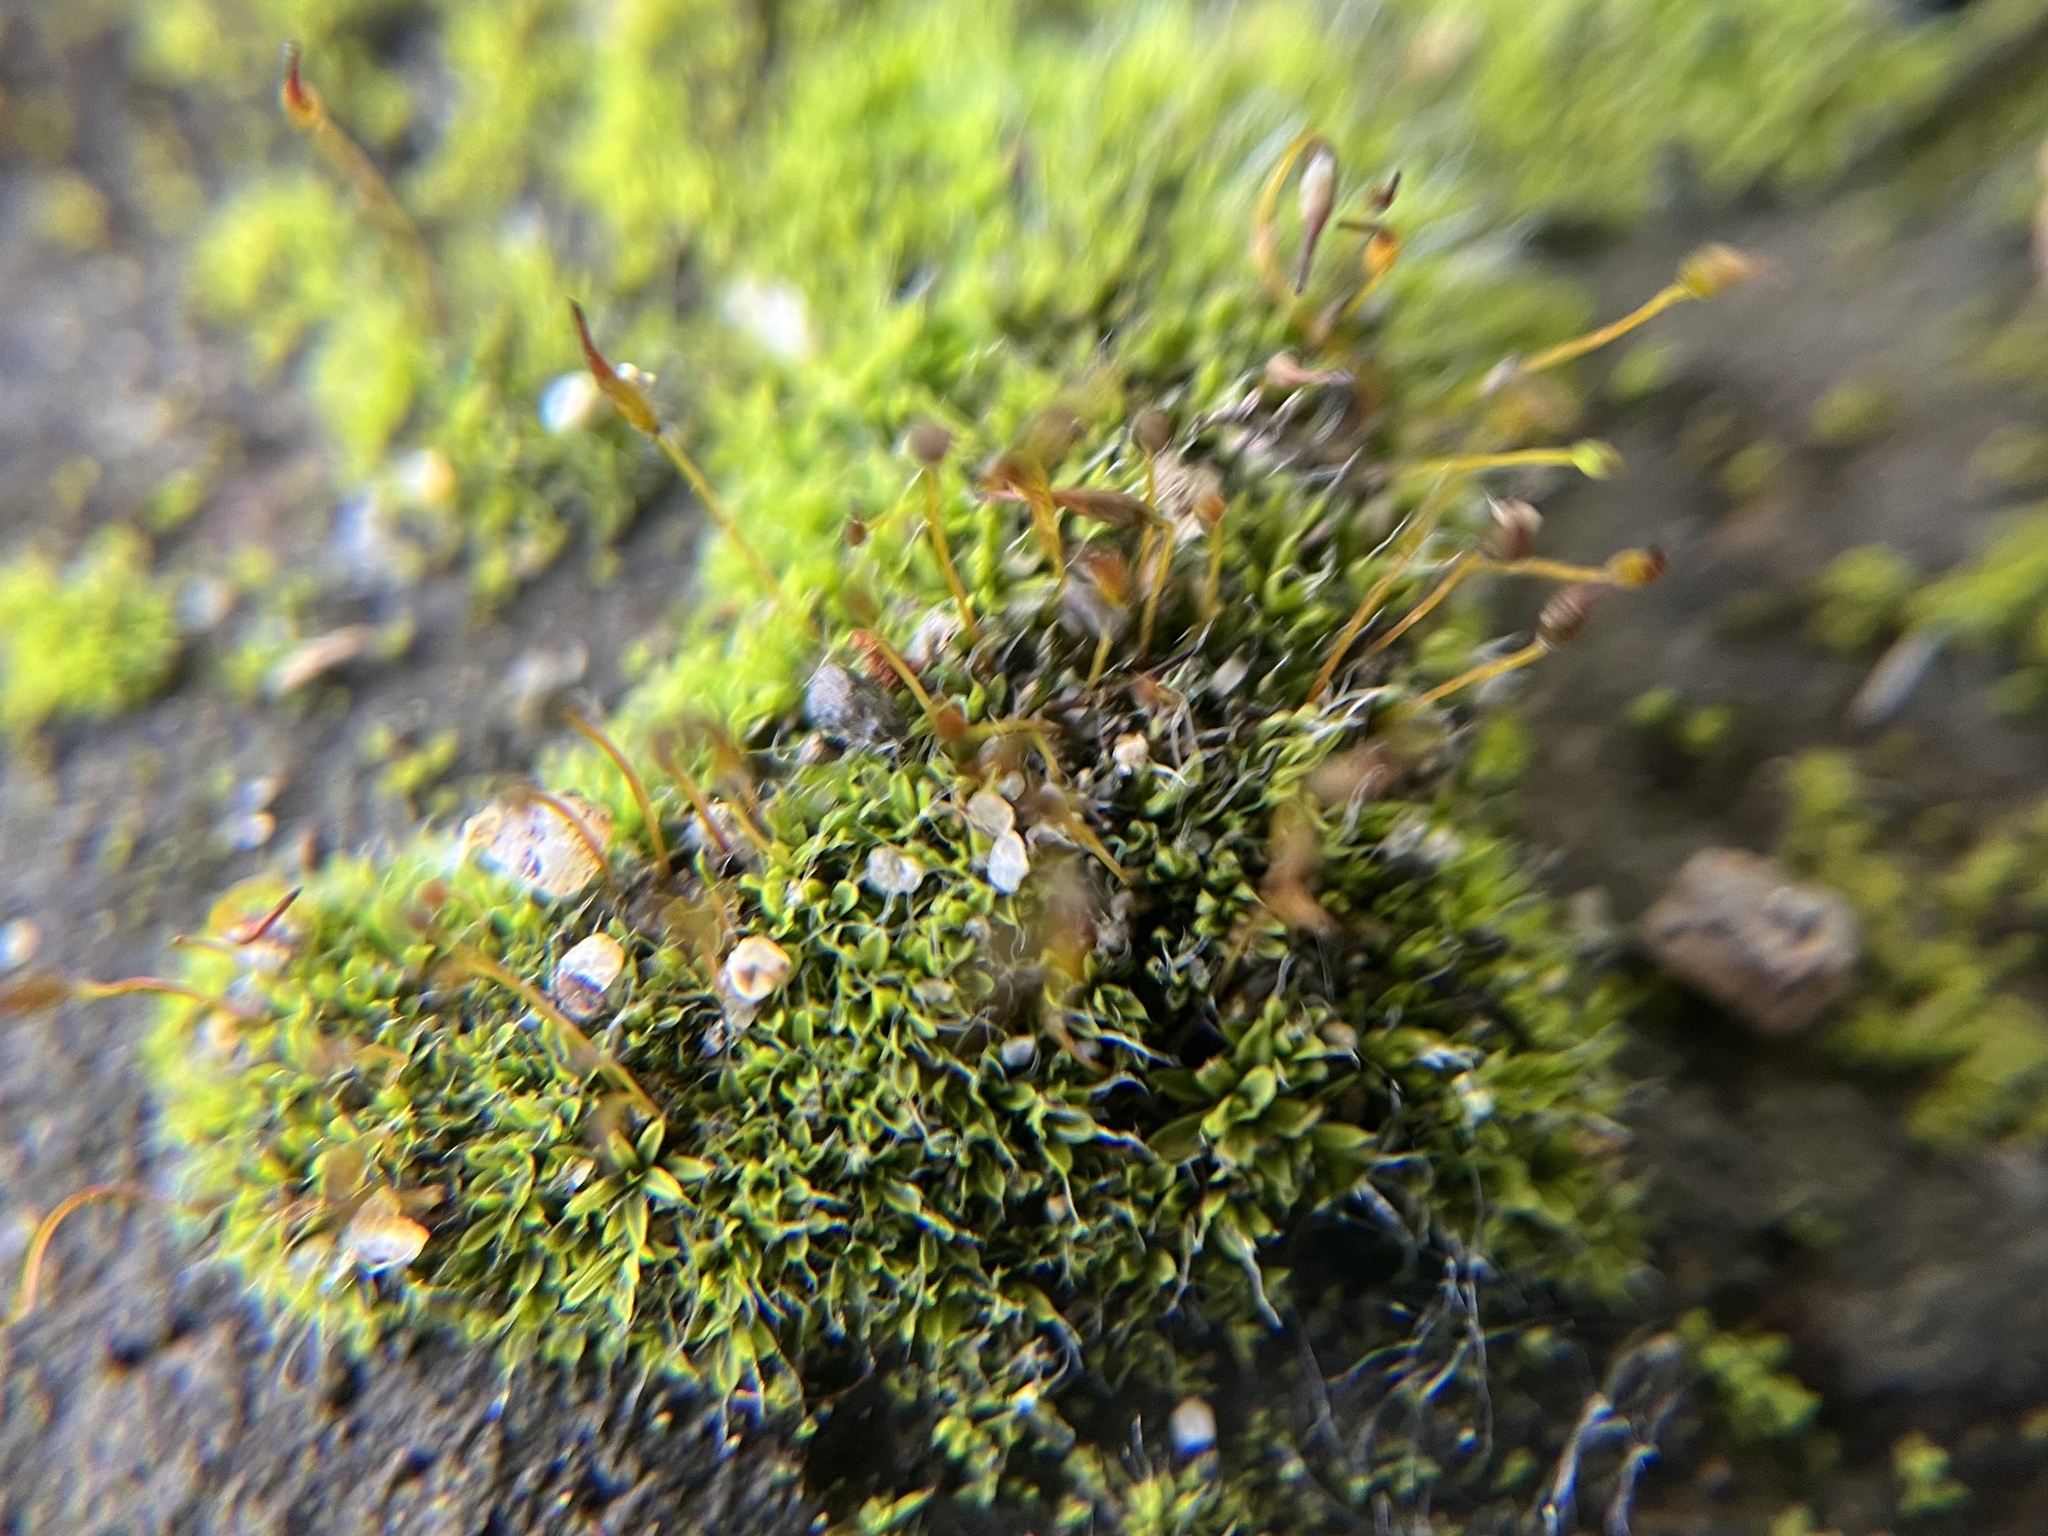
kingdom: Plantae
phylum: Bryophyta
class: Bryopsida
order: Pottiales
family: Pottiaceae
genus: Tortula
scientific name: Tortula muralis
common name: Wall screw-moss
